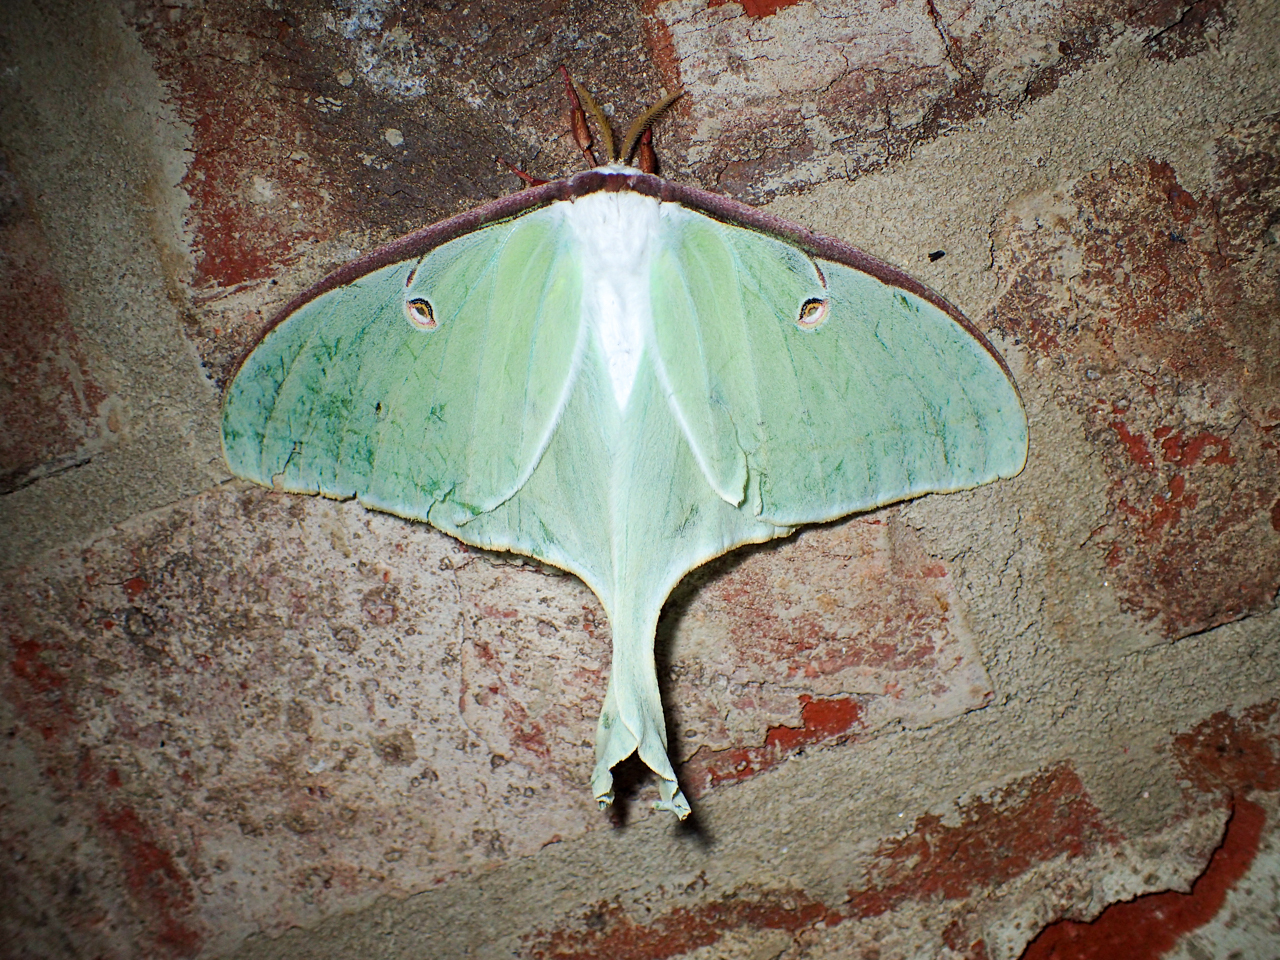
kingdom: Animalia
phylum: Arthropoda
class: Insecta
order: Lepidoptera
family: Saturniidae
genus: Actias
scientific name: Actias luna
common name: Luna moth
